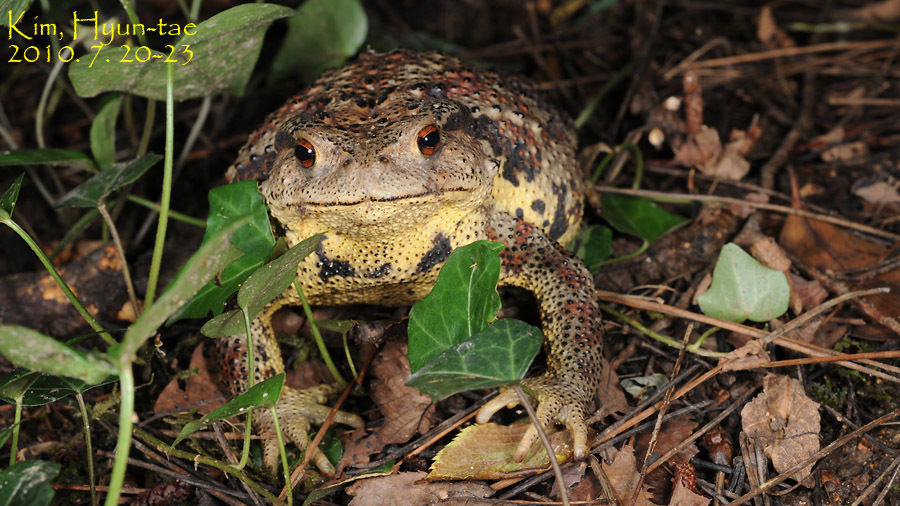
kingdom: Animalia
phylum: Chordata
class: Amphibia
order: Anura
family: Bufonidae
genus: Bufo
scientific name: Bufo gargarizans
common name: Asiatic toad
